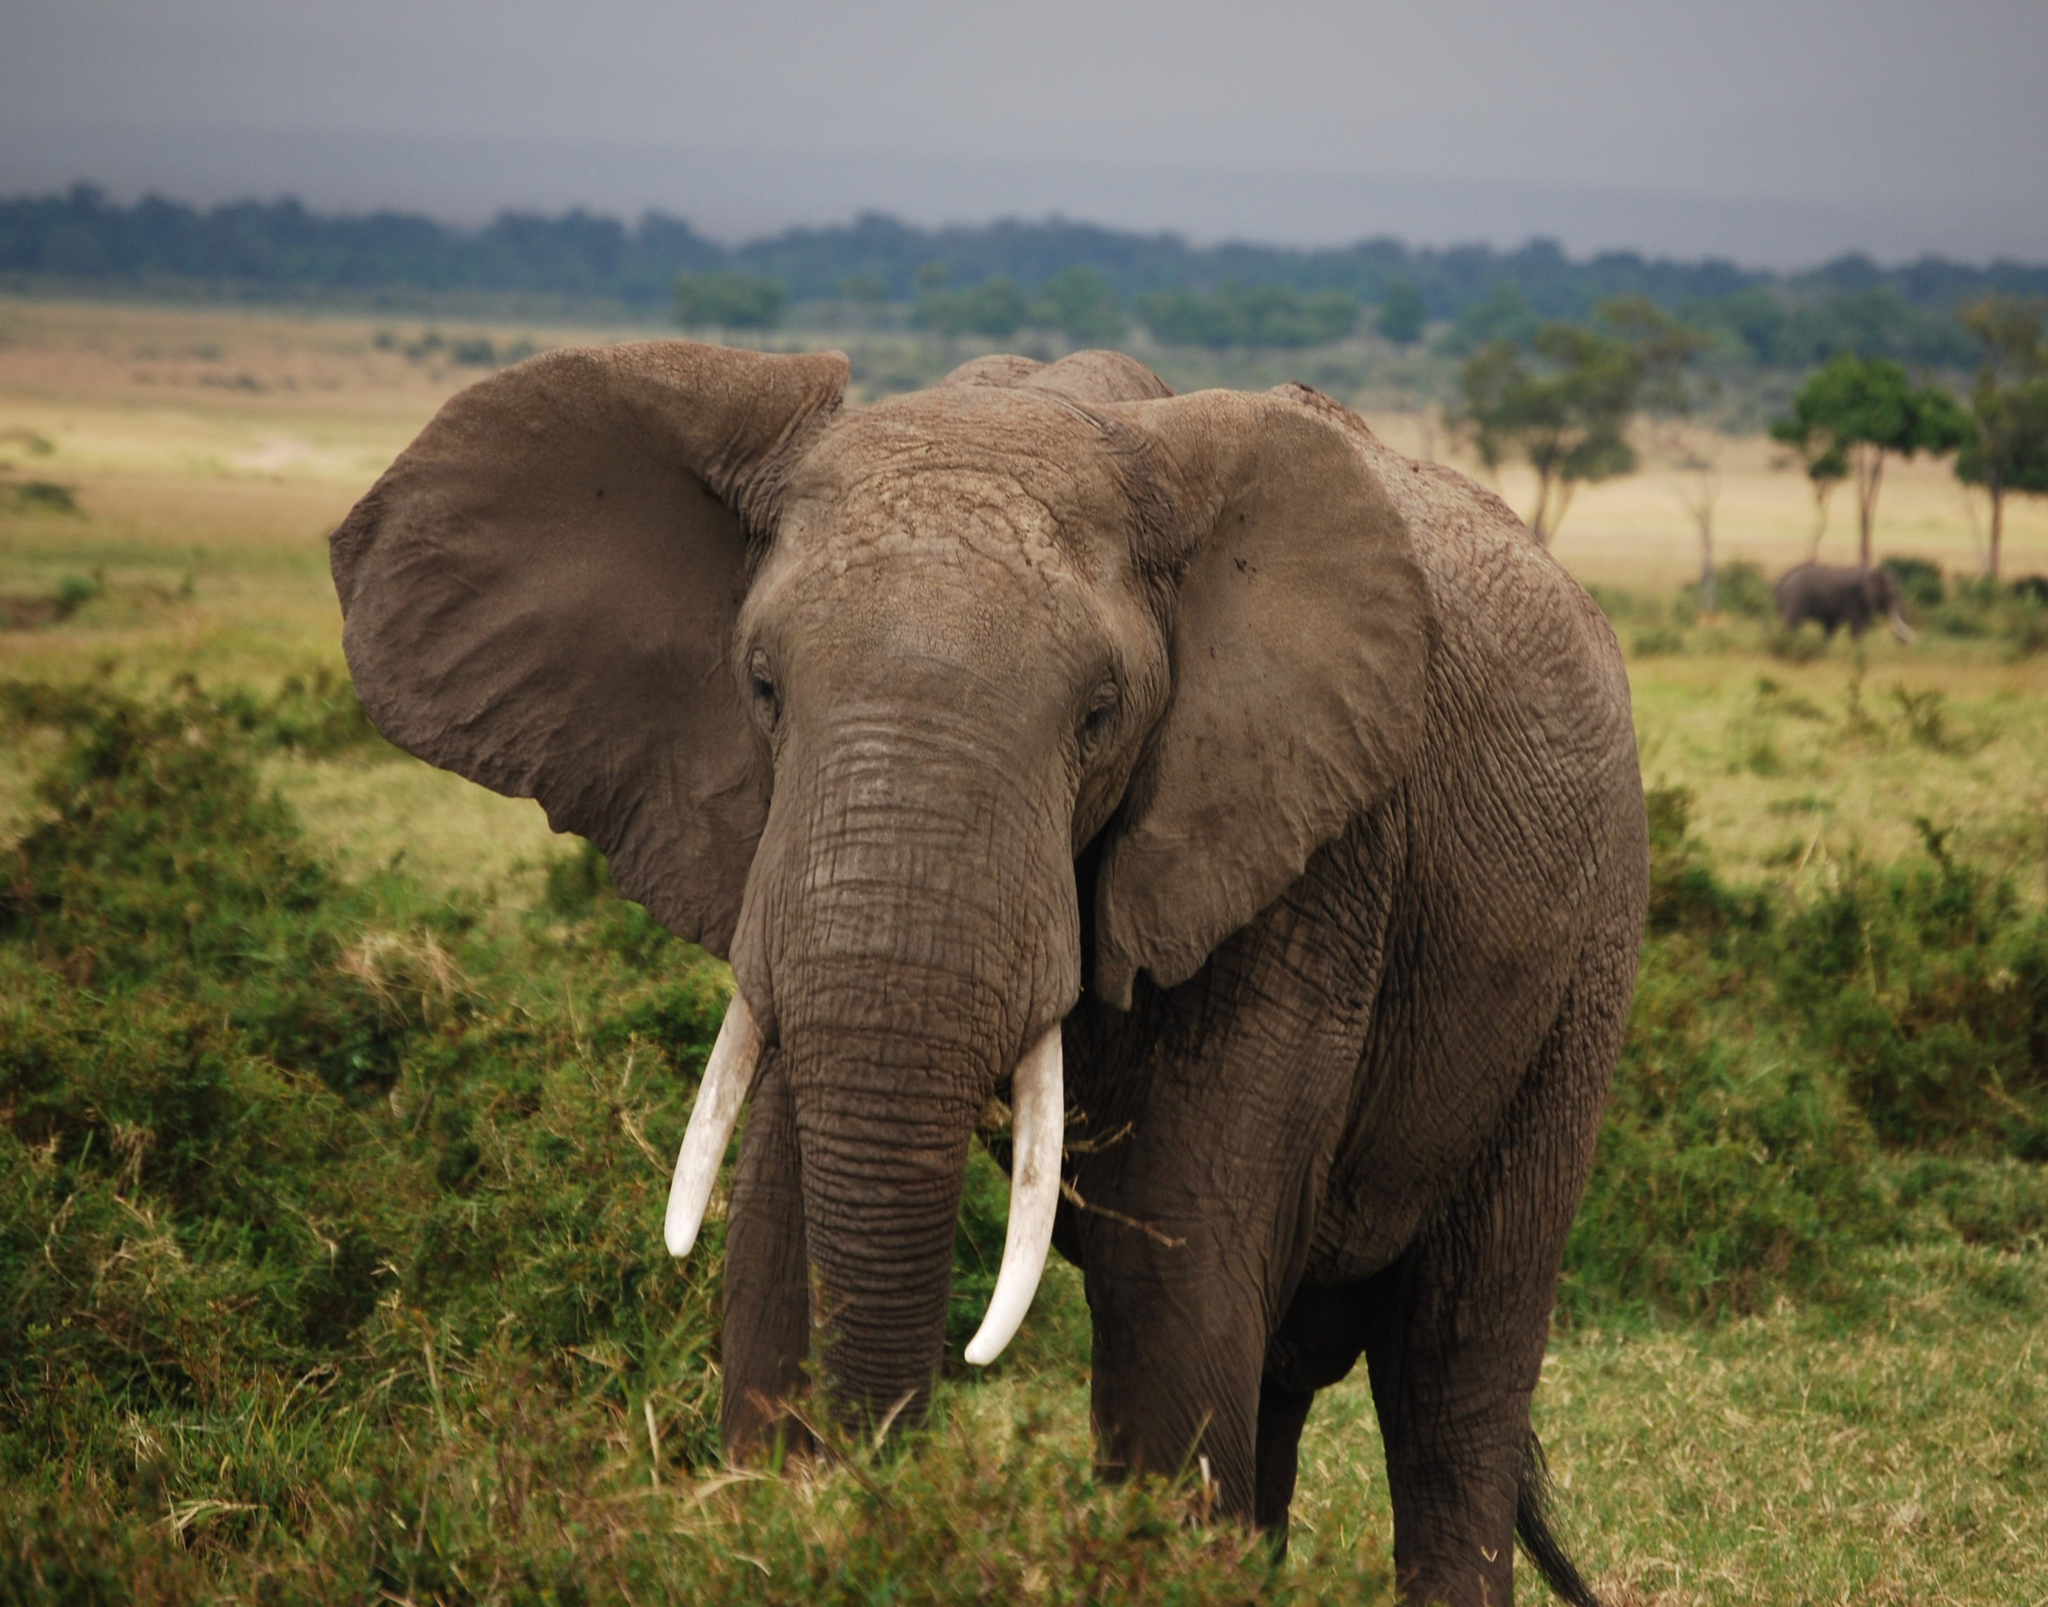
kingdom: Animalia
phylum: Chordata
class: Mammalia
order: Proboscidea
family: Elephantidae
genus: Loxodonta
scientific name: Loxodonta africana
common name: African elephant
